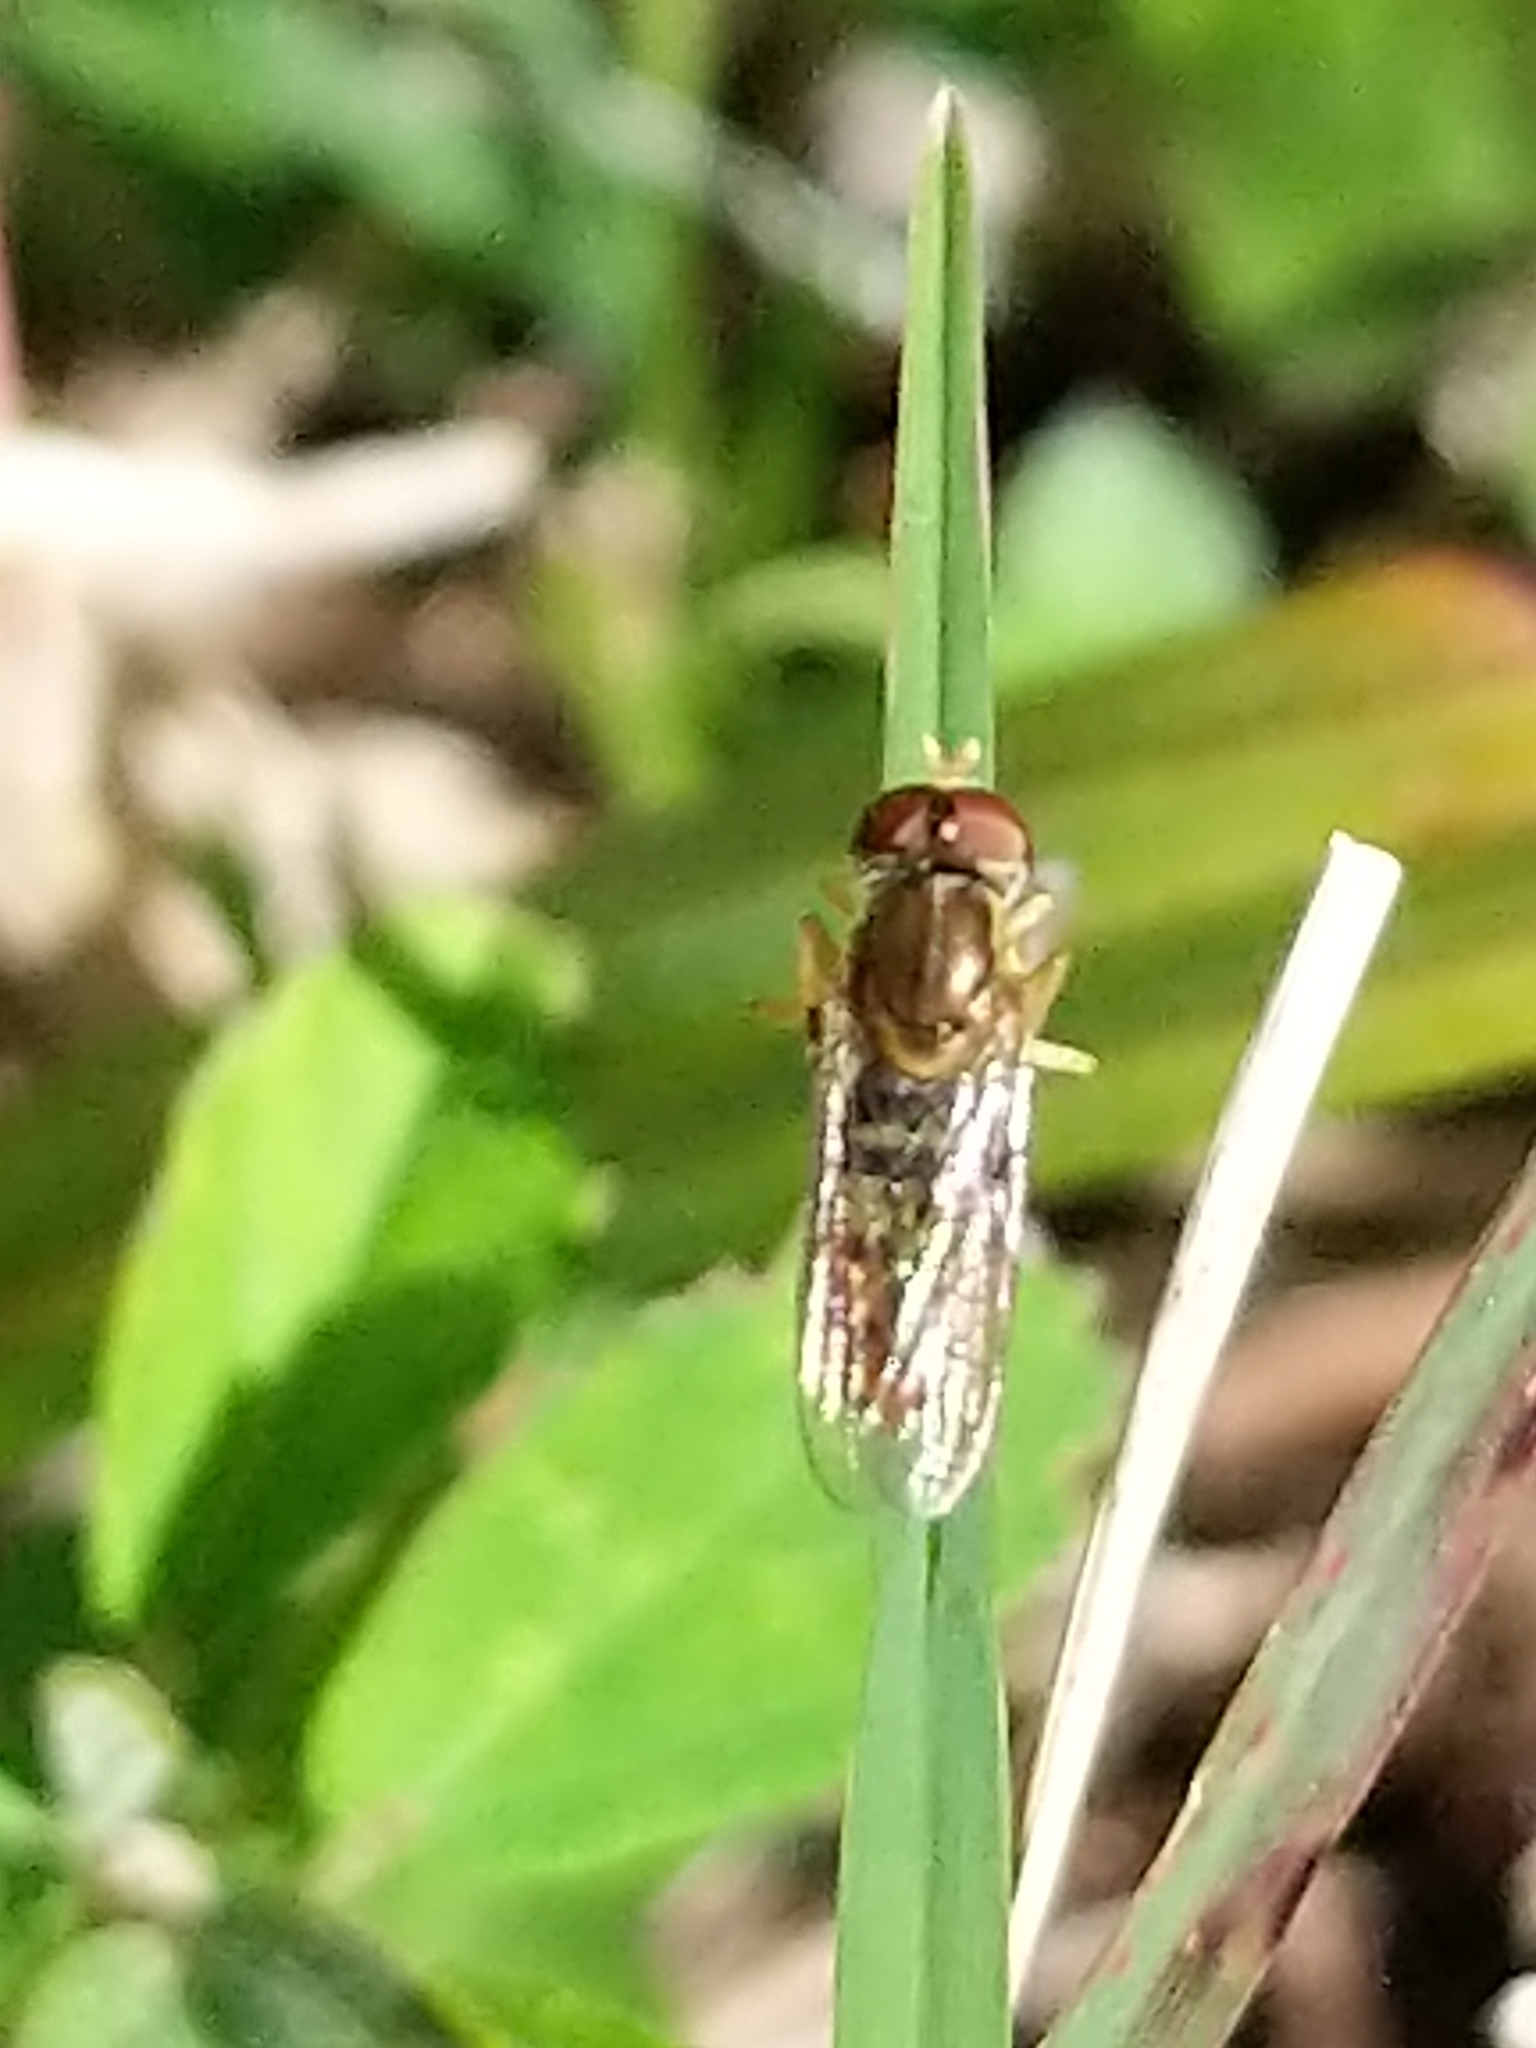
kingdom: Animalia
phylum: Arthropoda
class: Insecta
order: Diptera
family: Syrphidae
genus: Toxomerus
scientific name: Toxomerus marginatus
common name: Syrphid fly
